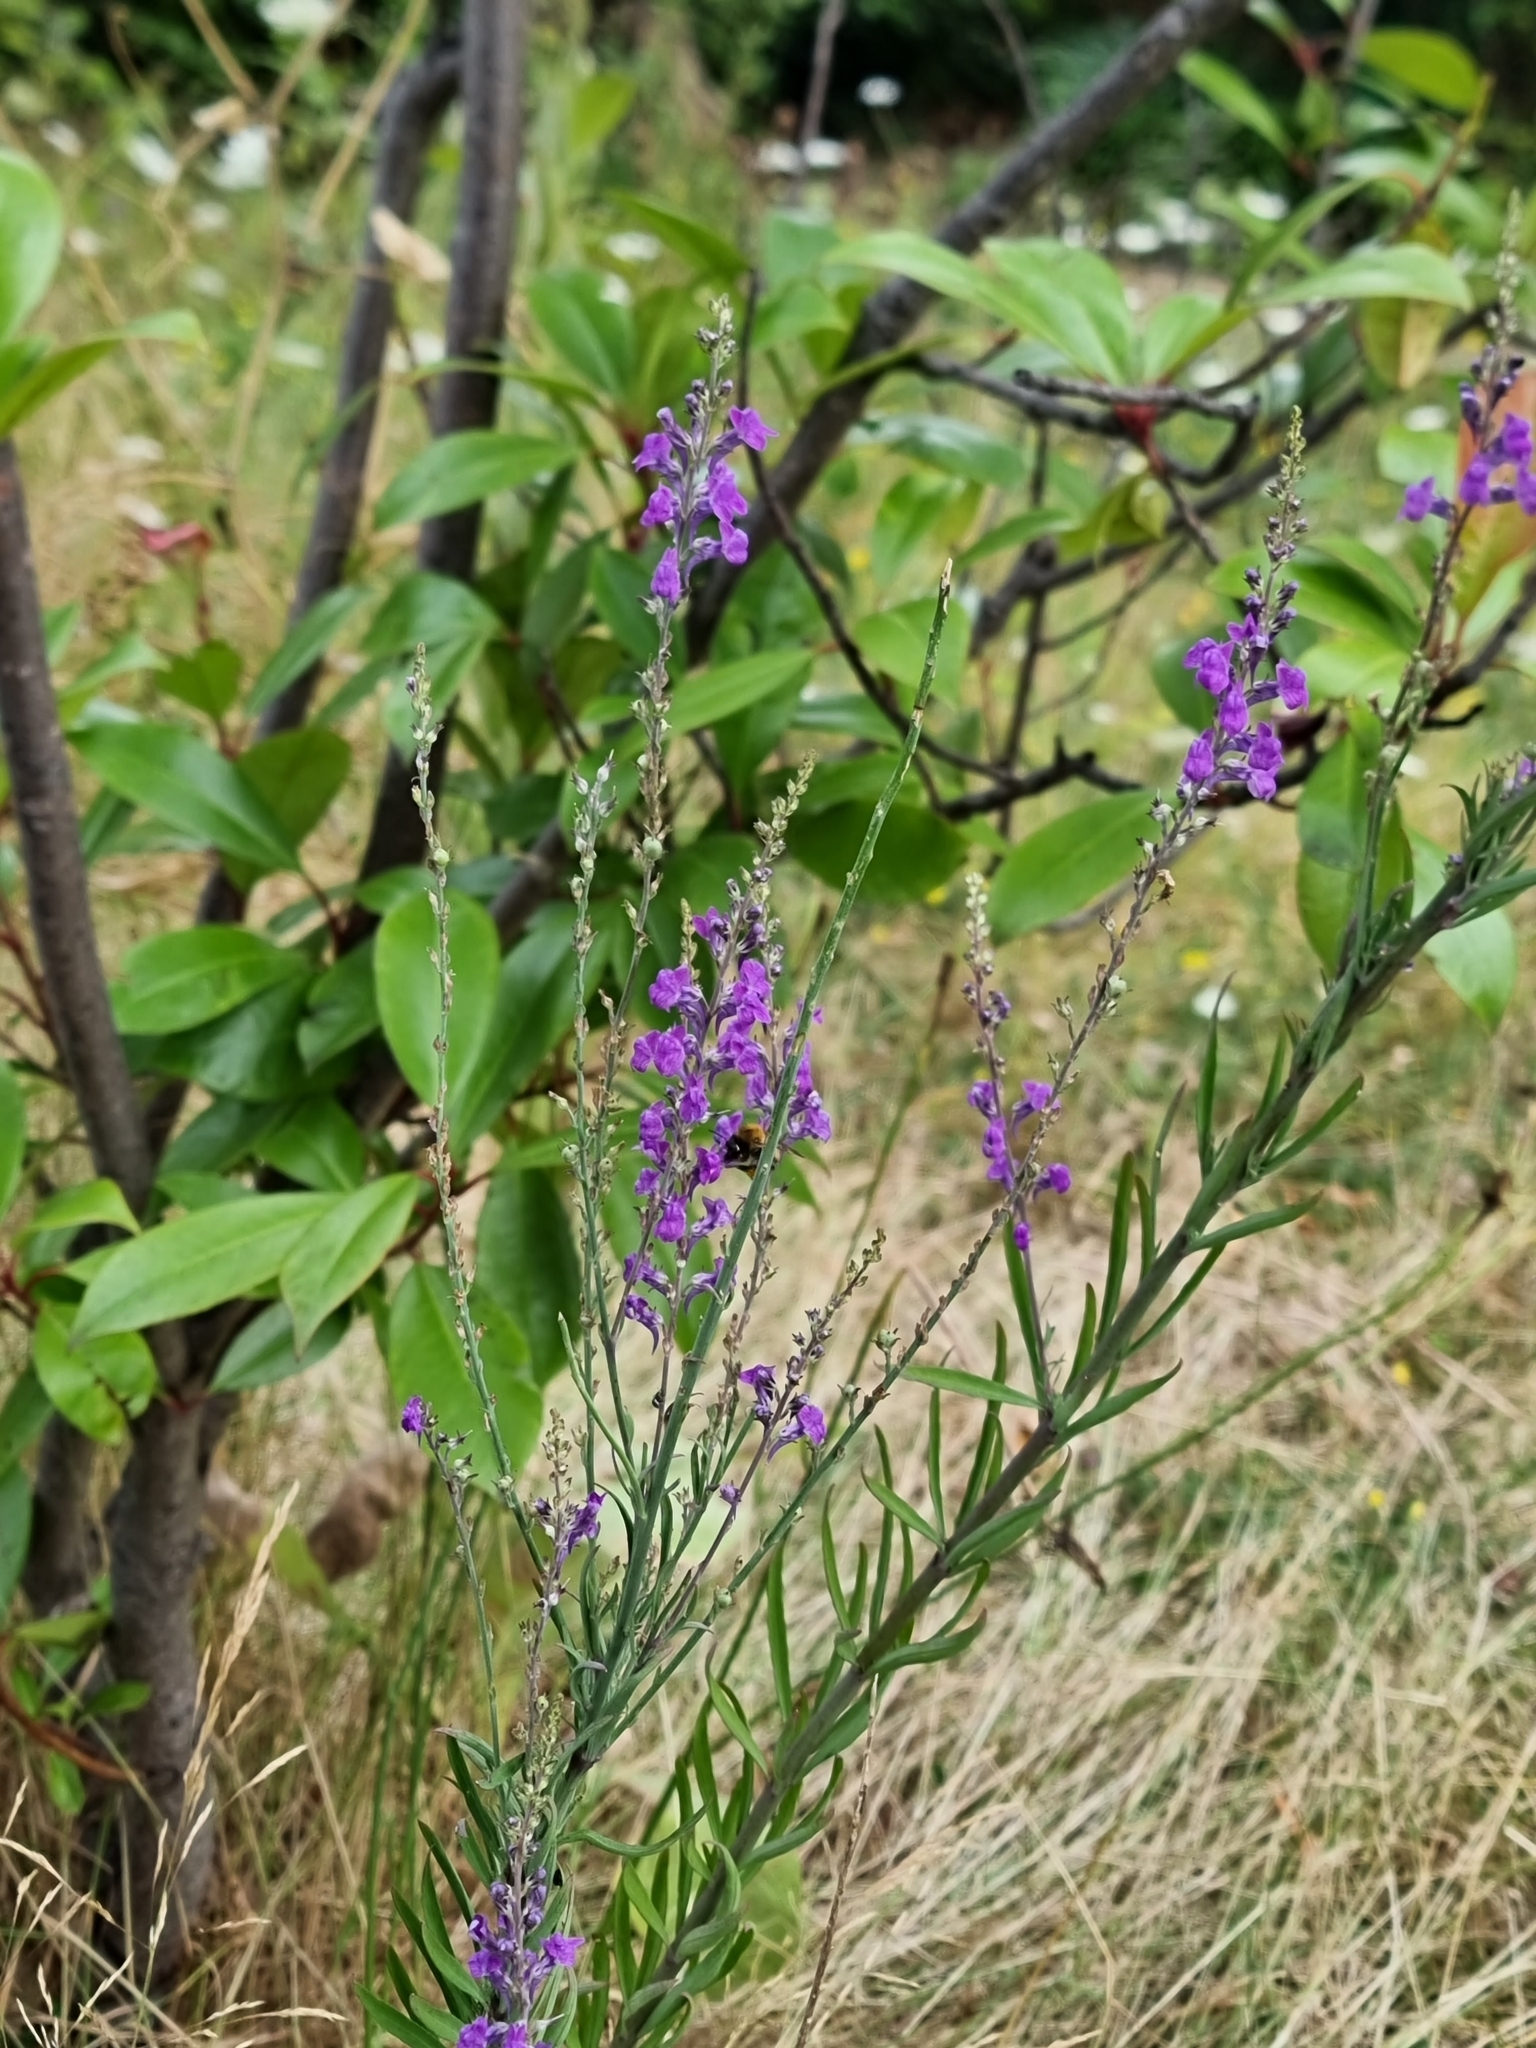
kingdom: Plantae
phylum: Tracheophyta
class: Magnoliopsida
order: Lamiales
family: Plantaginaceae
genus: Linaria
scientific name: Linaria purpurea
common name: Purple toadflax
